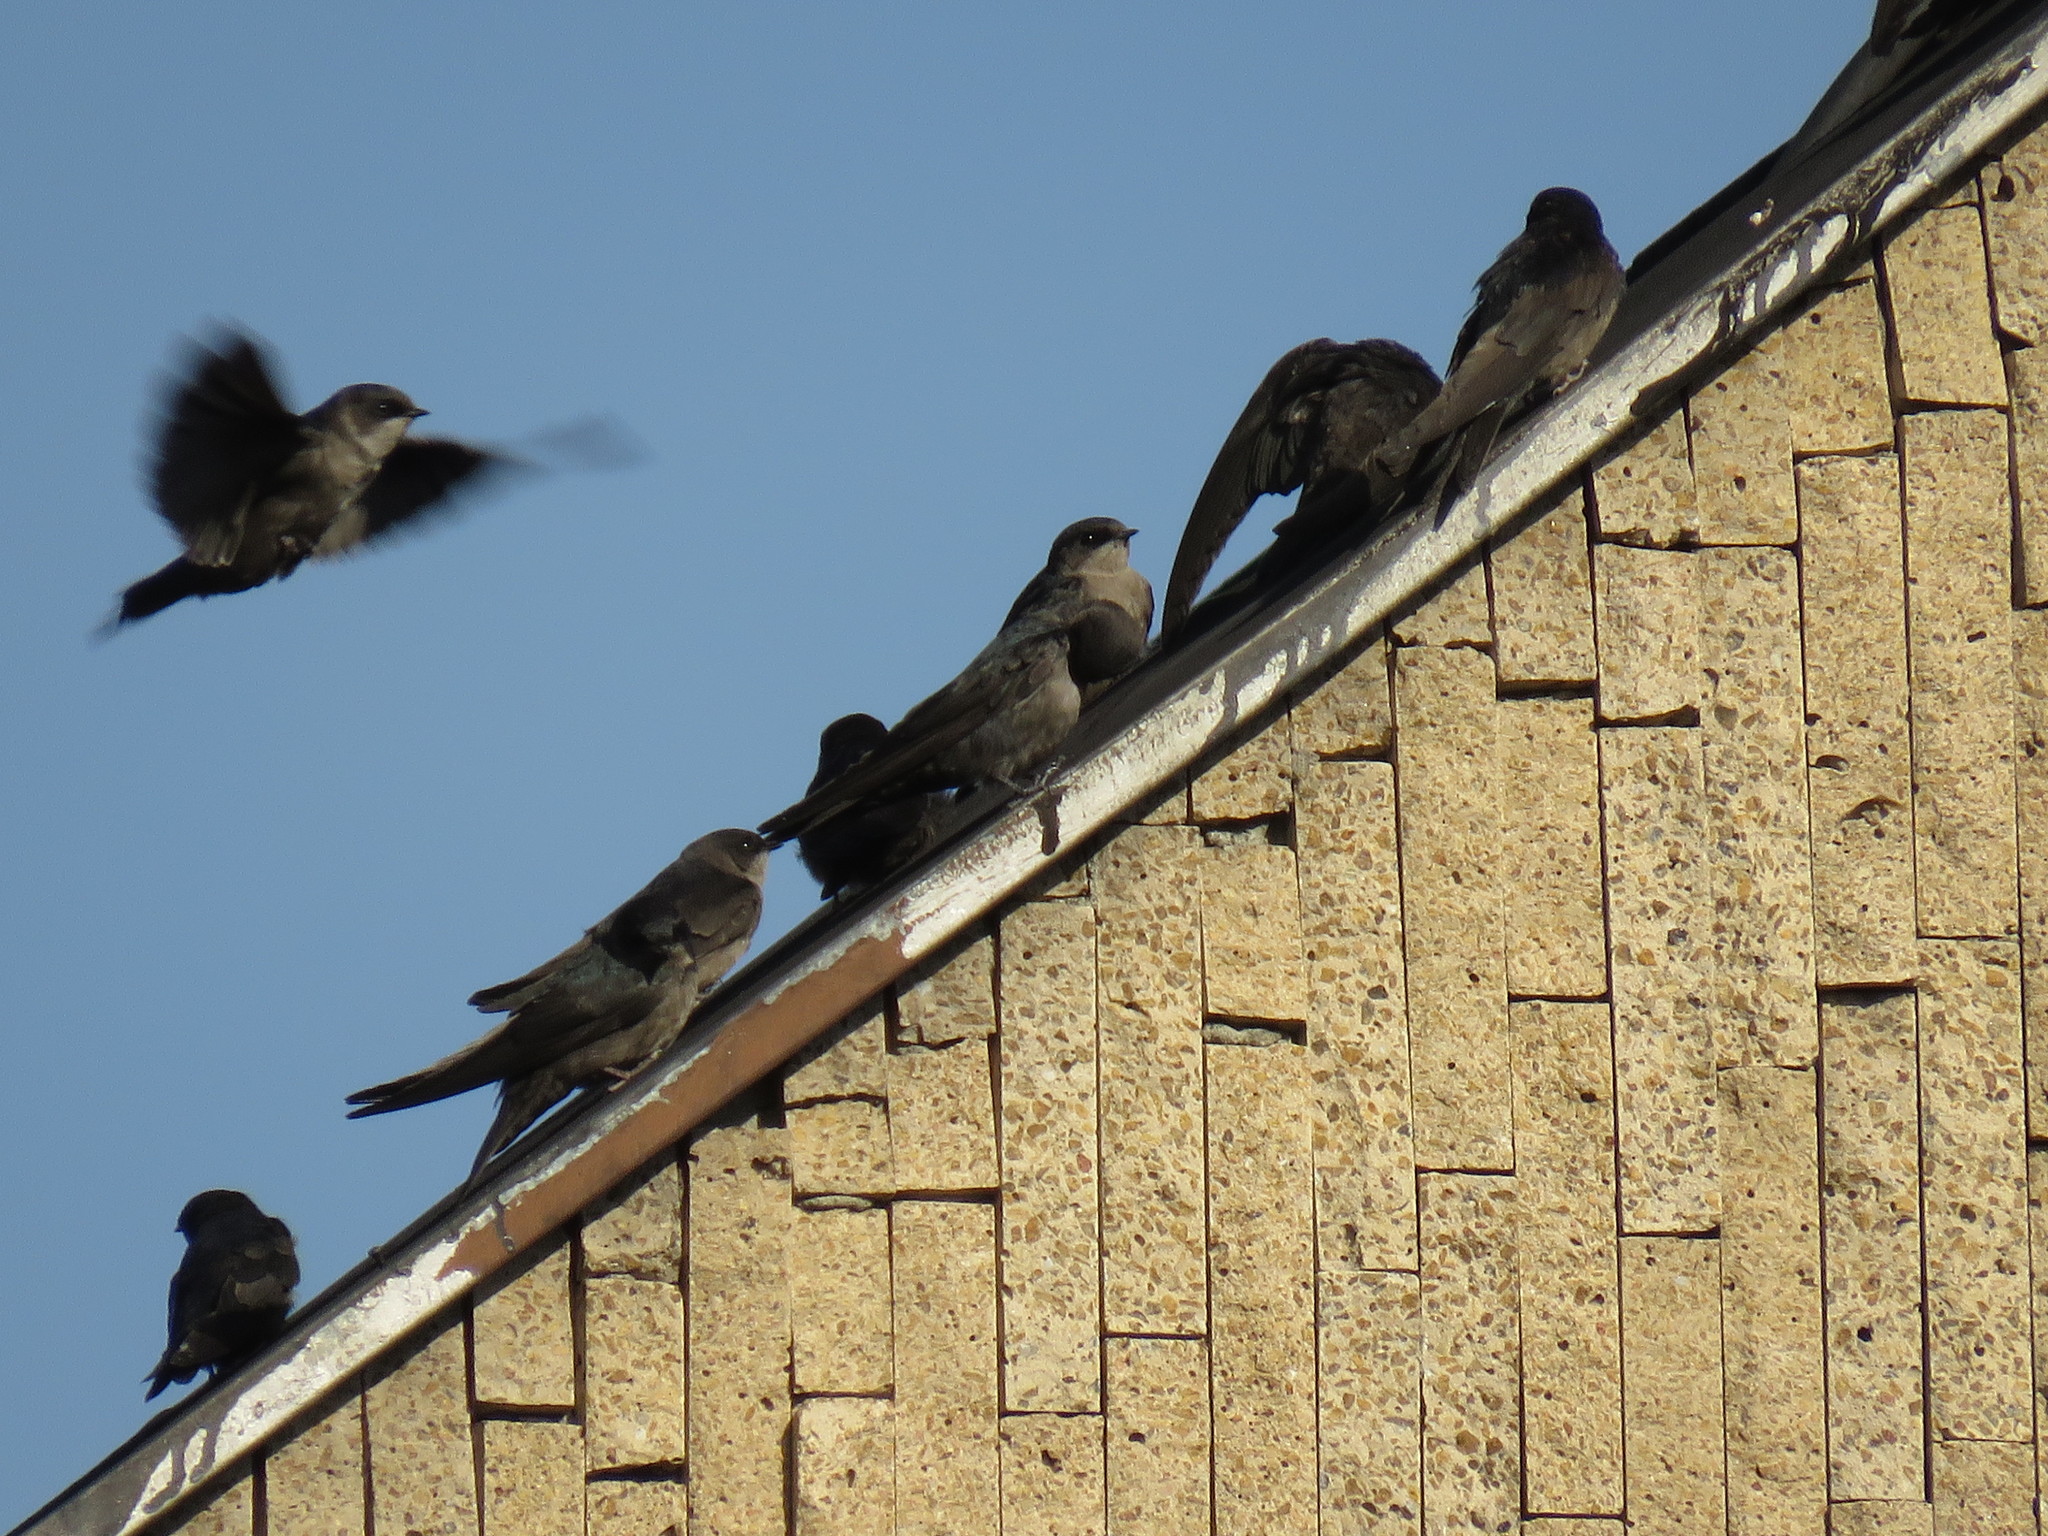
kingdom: Animalia
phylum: Chordata
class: Aves
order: Passeriformes
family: Hirundinidae
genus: Notiochelidon
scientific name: Notiochelidon murina
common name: Brown-bellied swallow
